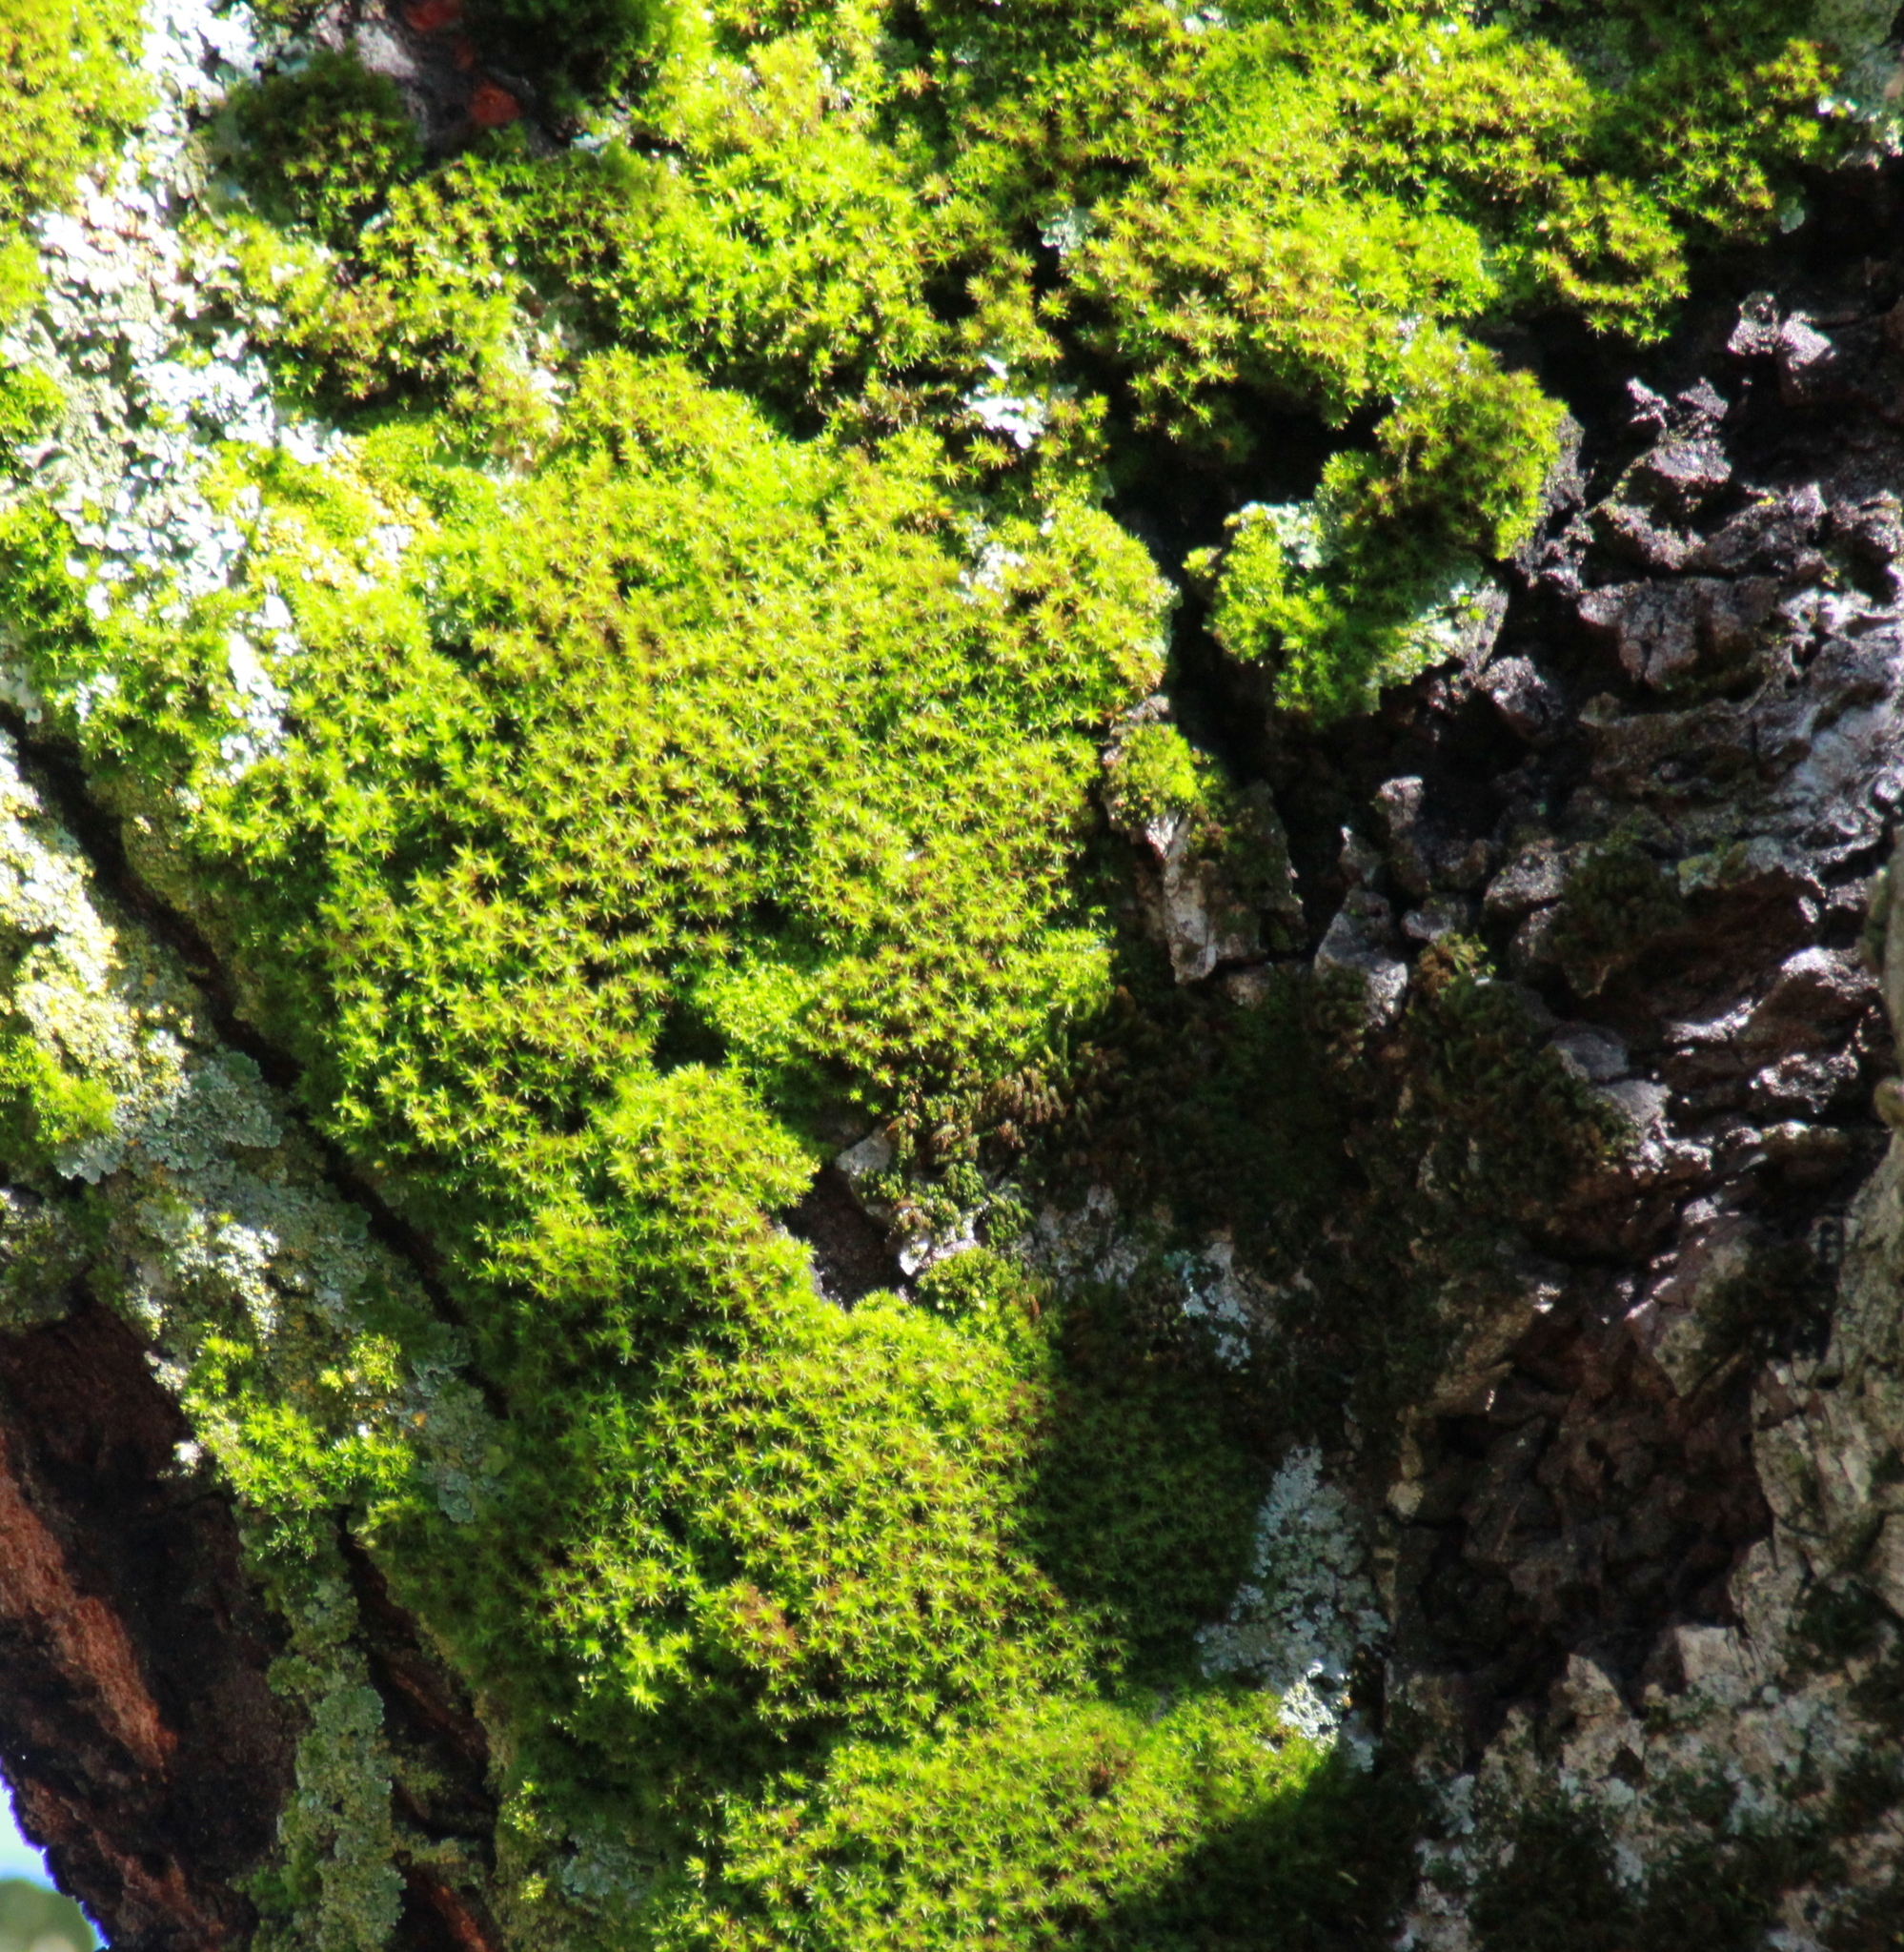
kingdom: Plantae
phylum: Bryophyta
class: Bryopsida
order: Pottiales
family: Pottiaceae
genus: Syntrichia
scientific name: Syntrichia laevipila
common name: Small hairy screw-moss
